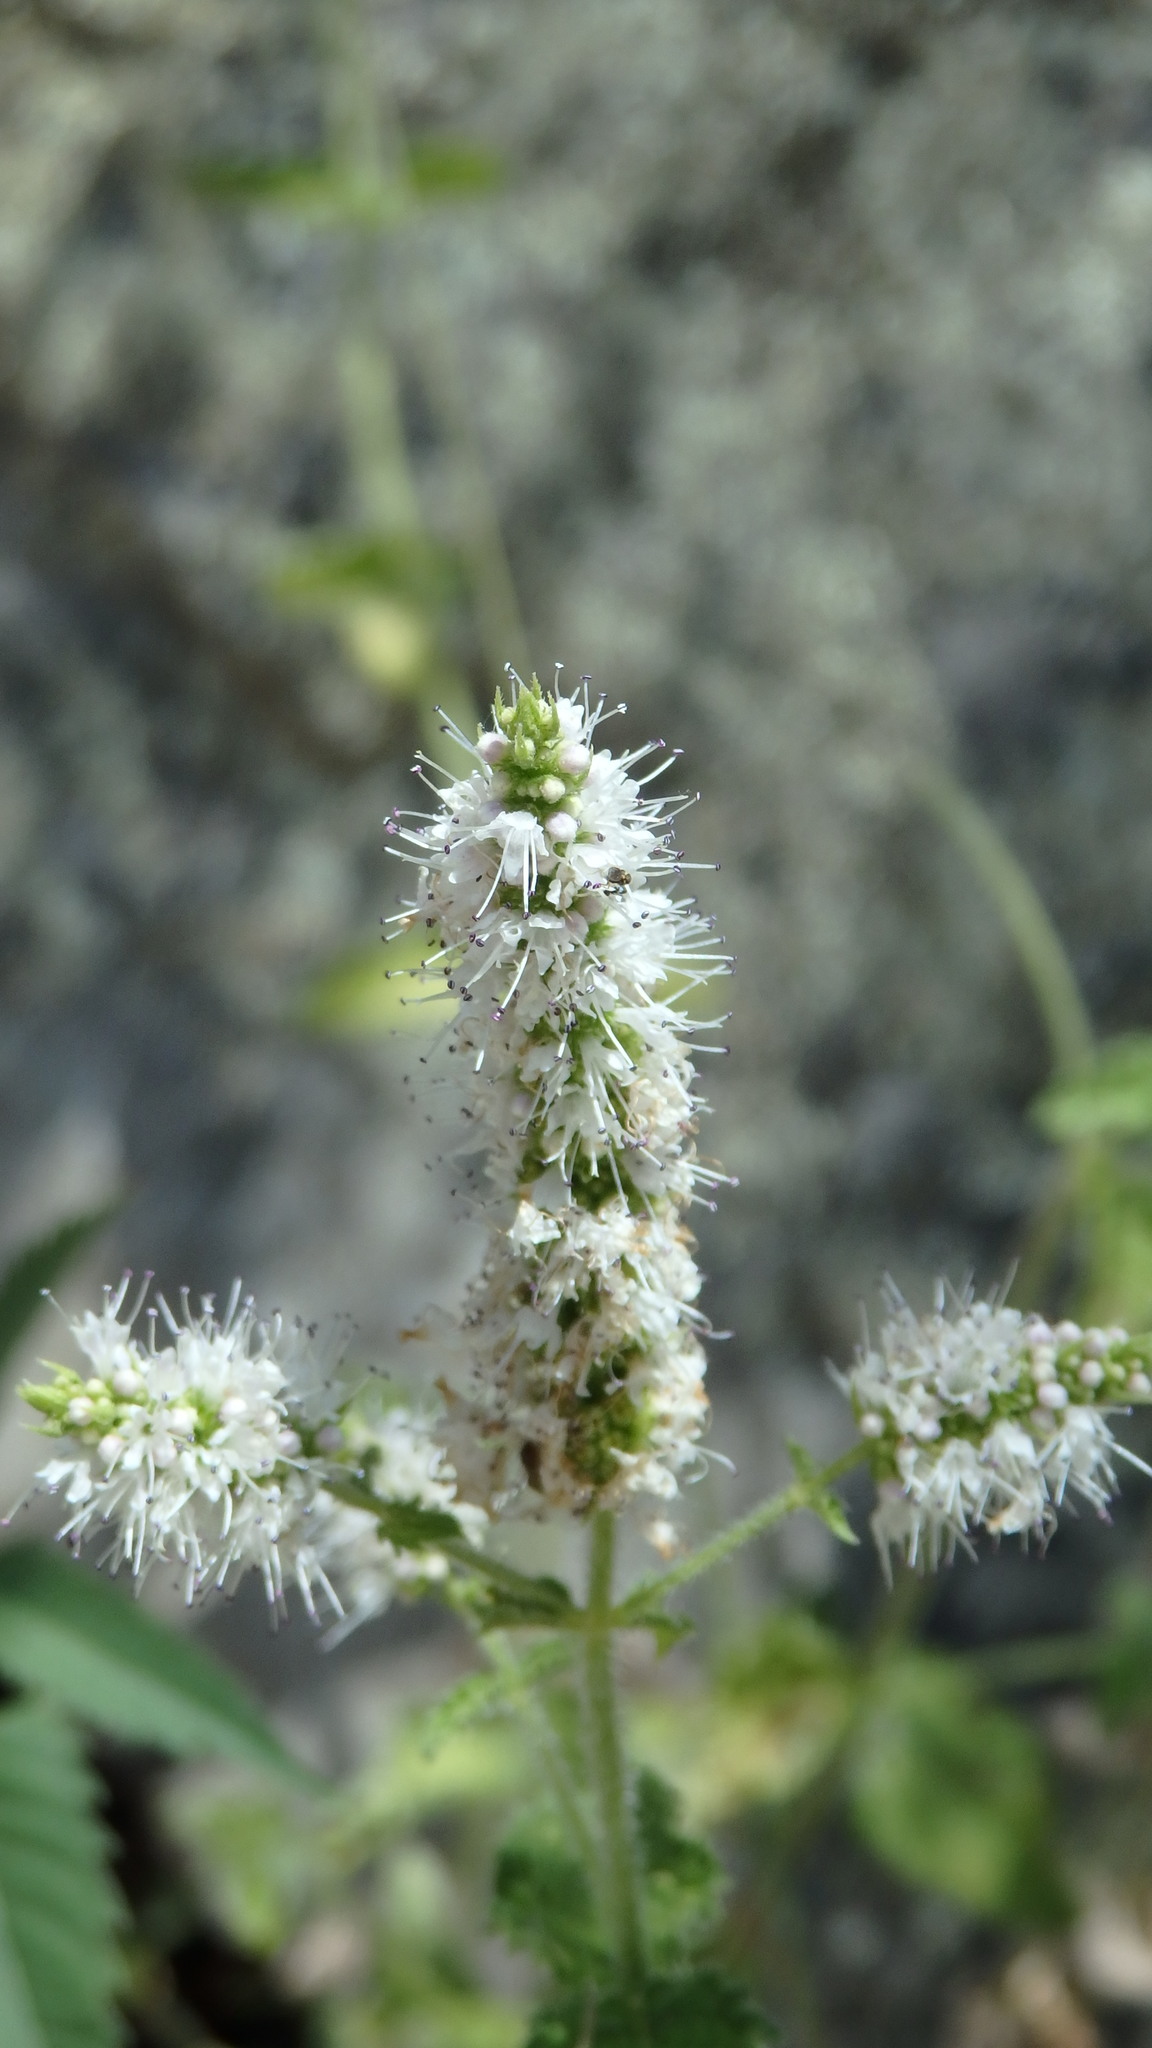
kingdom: Plantae
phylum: Tracheophyta
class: Magnoliopsida
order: Lamiales
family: Lamiaceae
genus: Mentha
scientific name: Mentha suaveolens
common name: Apple mint
